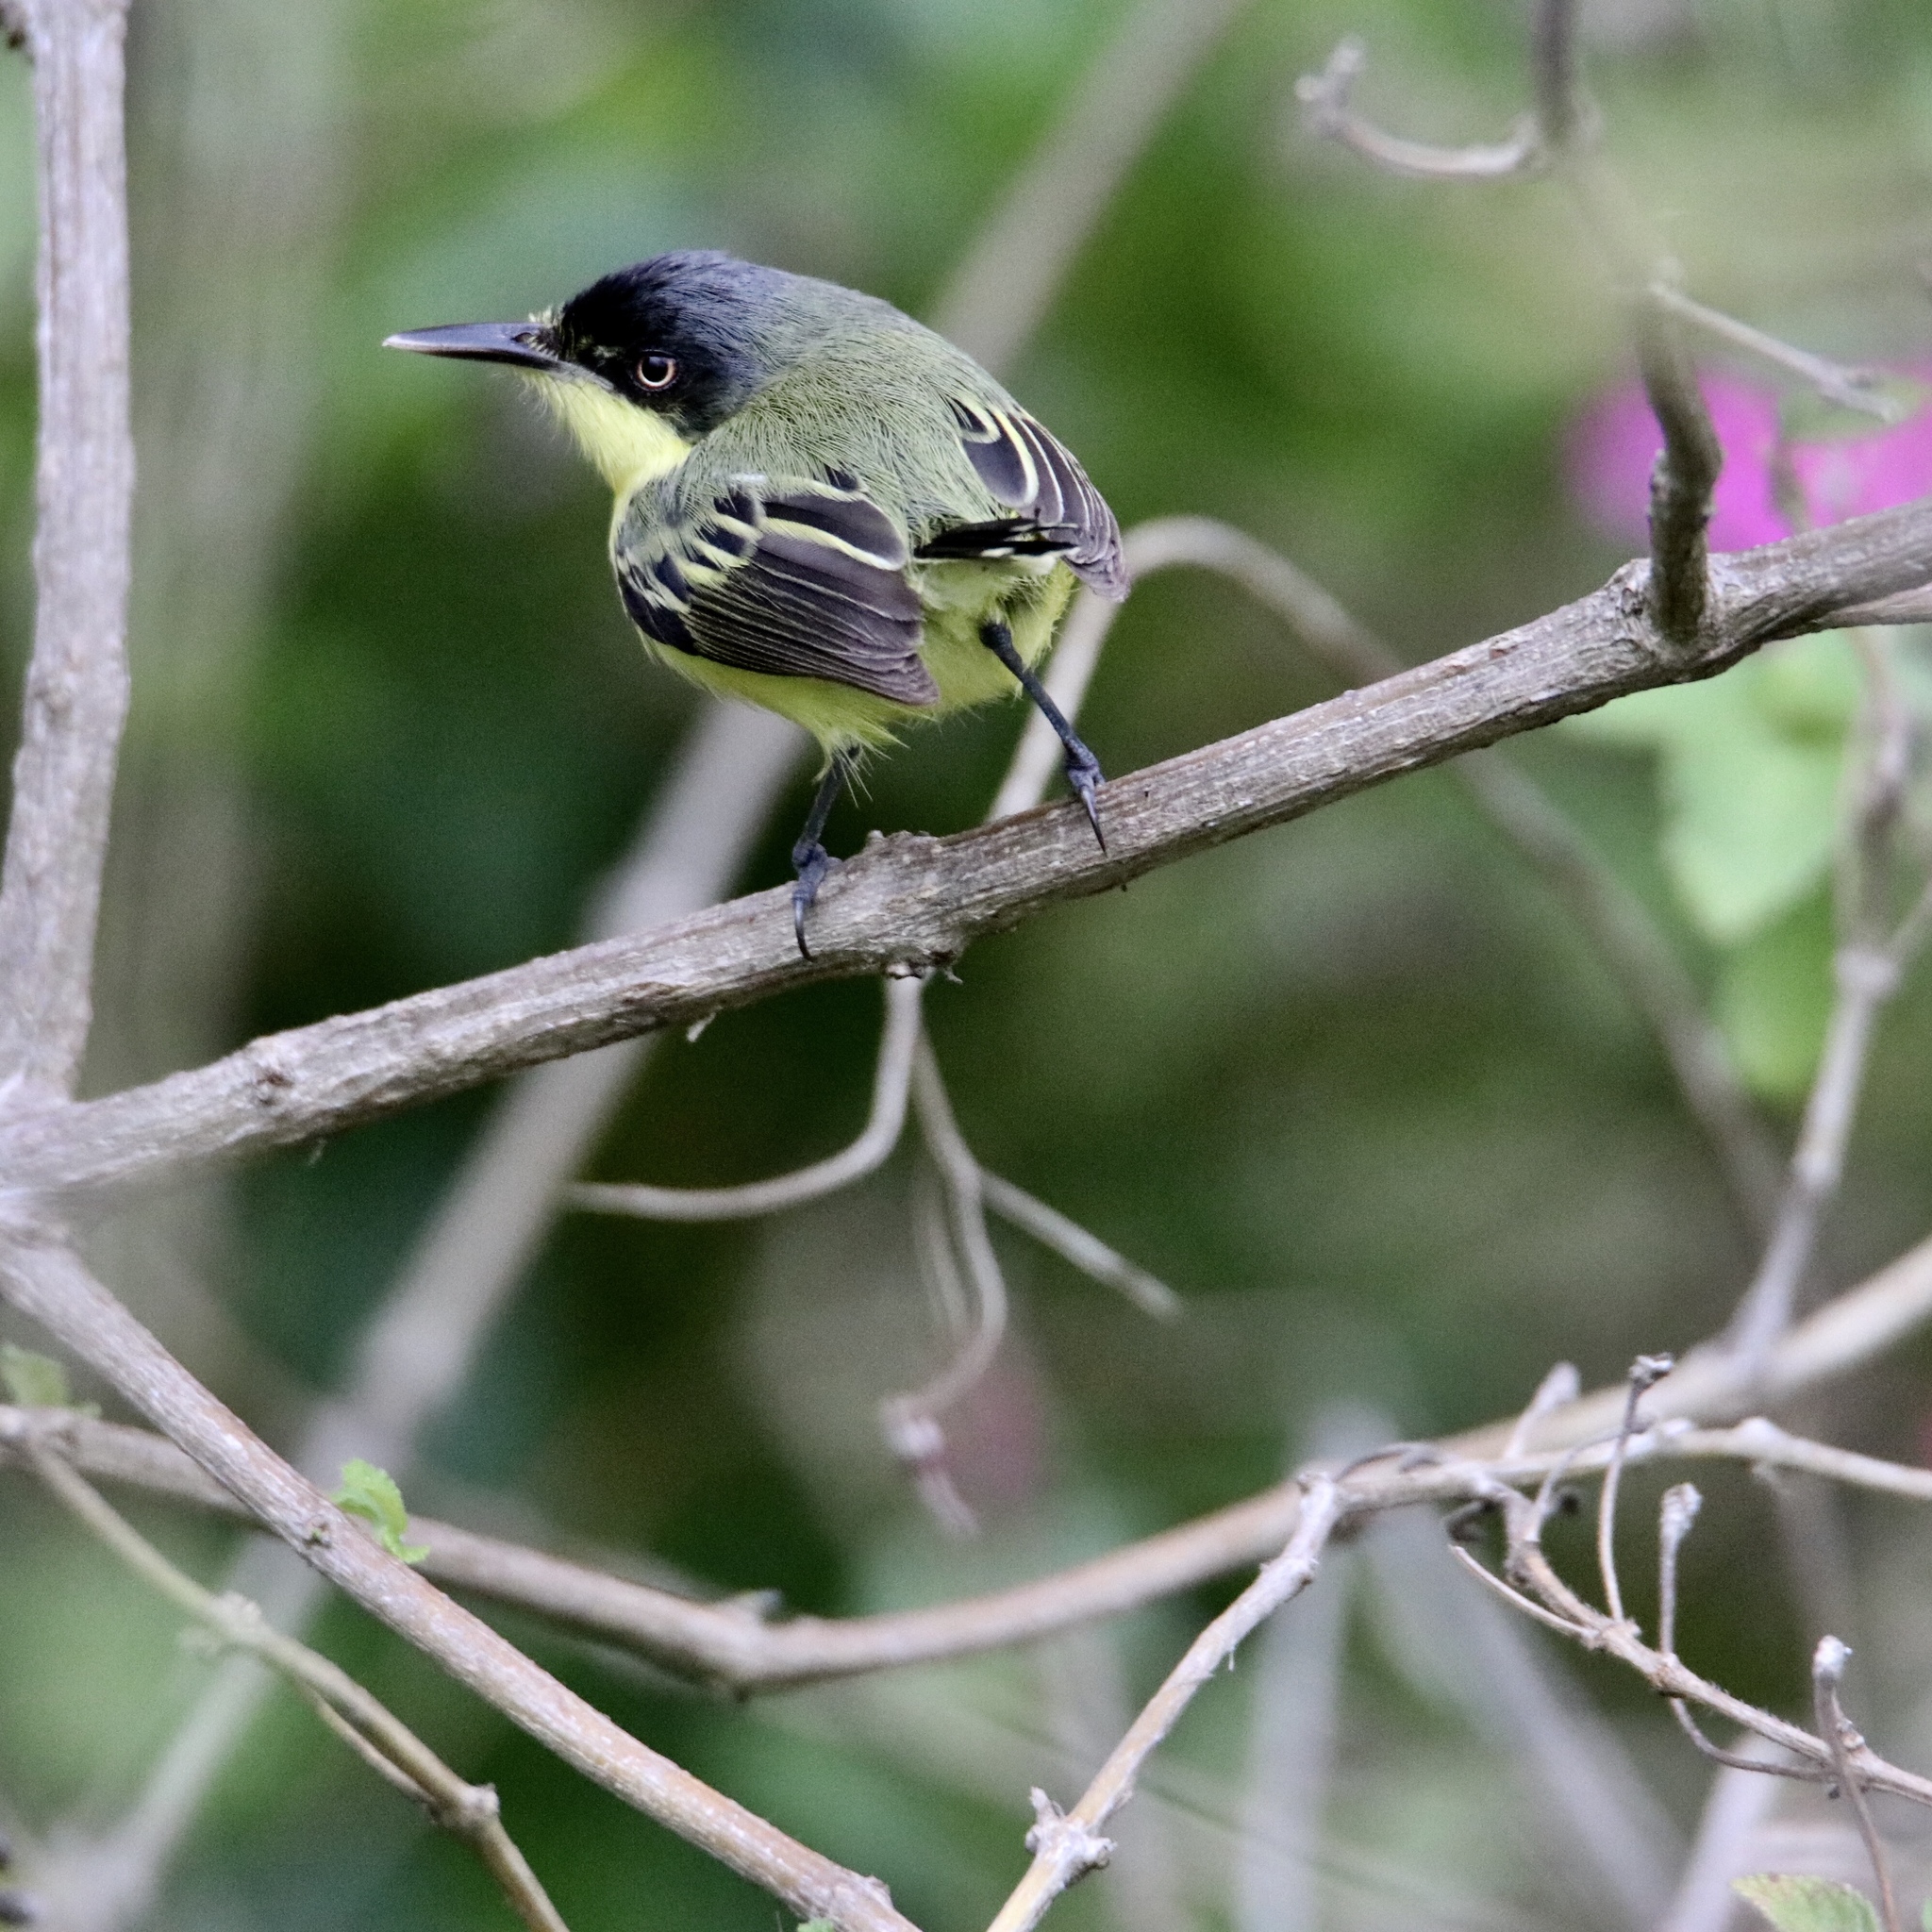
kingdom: Animalia
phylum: Chordata
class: Aves
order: Passeriformes
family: Tyrannidae
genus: Todirostrum
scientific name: Todirostrum cinereum
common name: Common tody-flycatcher
